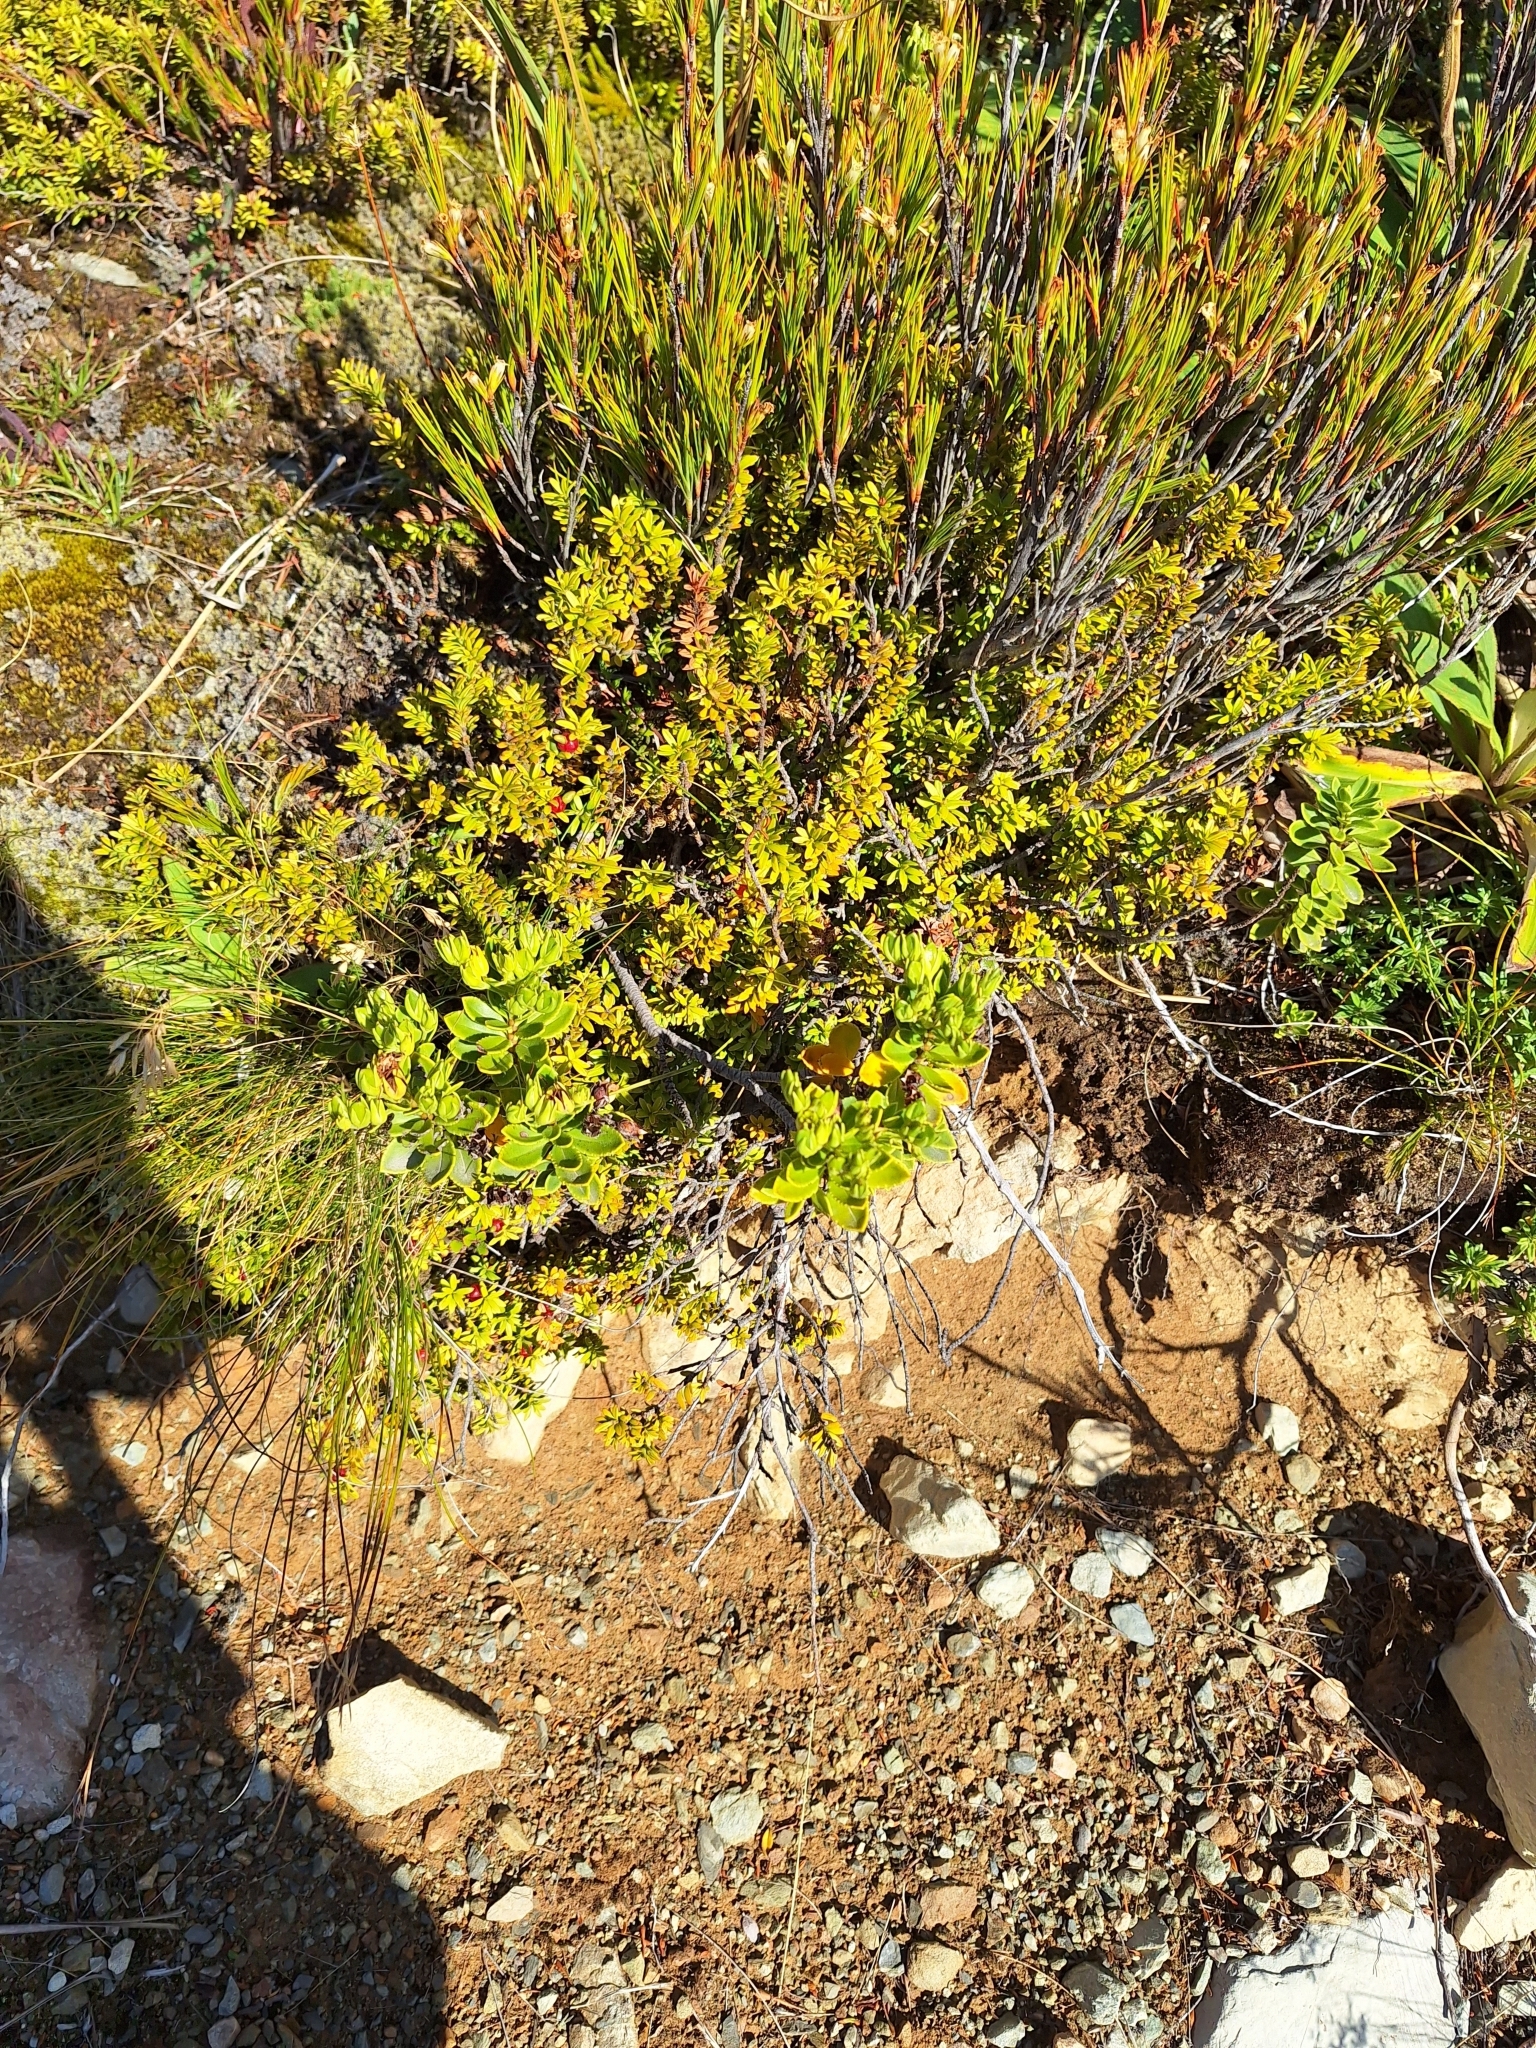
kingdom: Plantae
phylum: Tracheophyta
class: Magnoliopsida
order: Lamiales
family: Plantaginaceae
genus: Veronica
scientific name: Veronica macrantha
